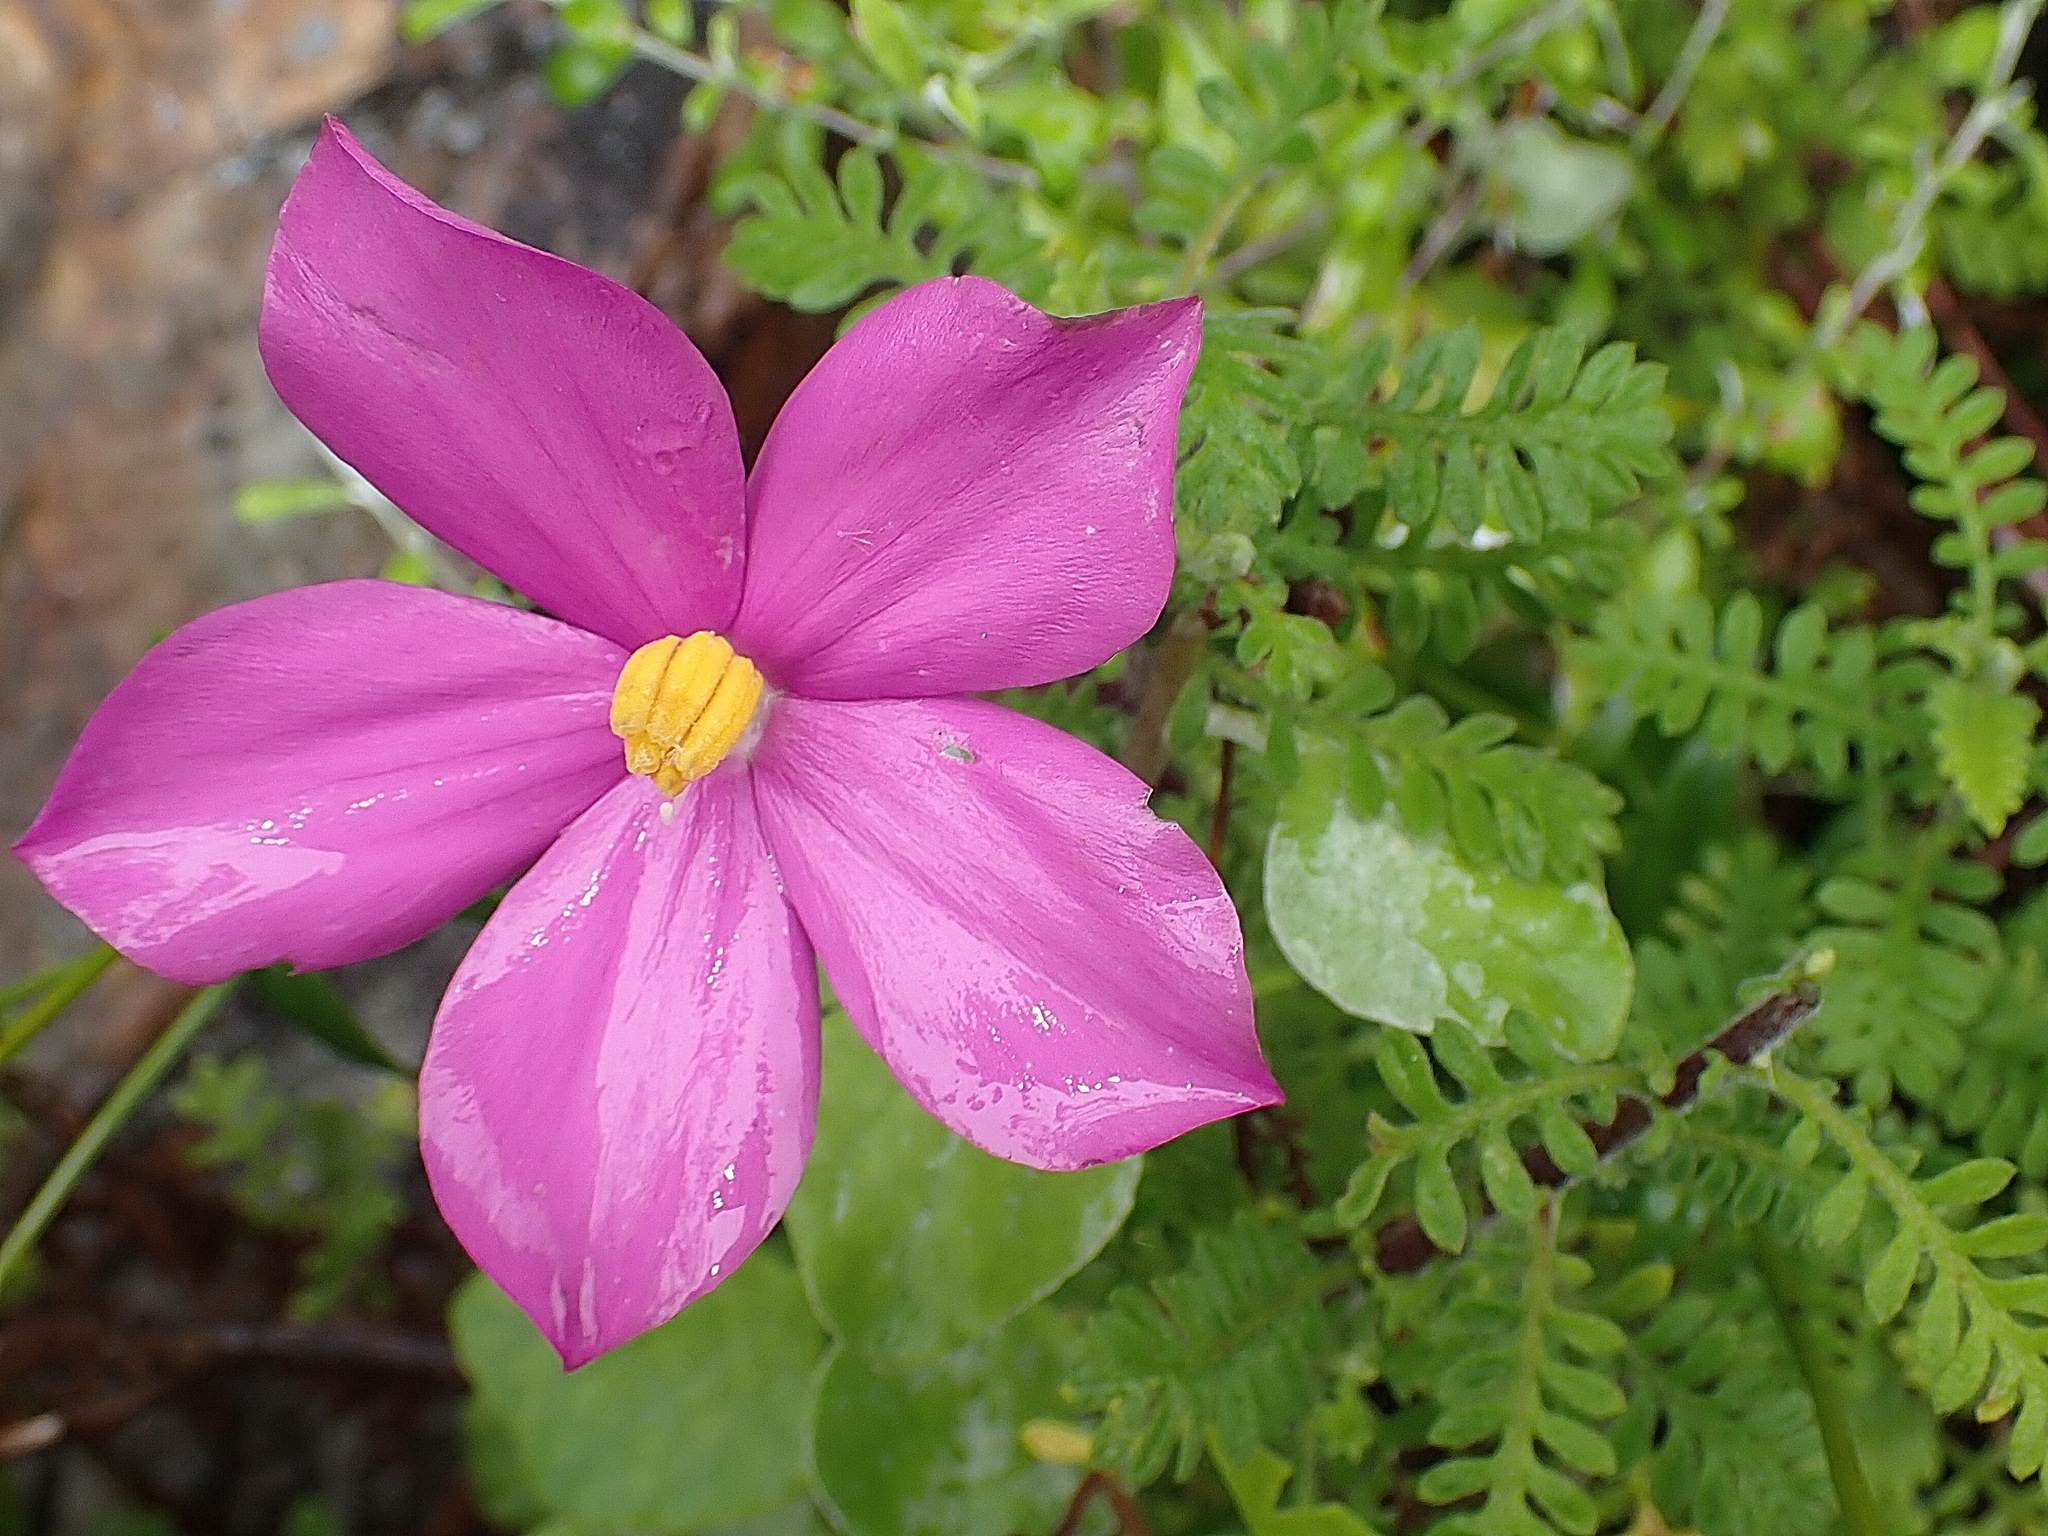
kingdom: Plantae
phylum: Tracheophyta
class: Magnoliopsida
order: Gentianales
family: Gentianaceae
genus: Chironia
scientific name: Chironia melampyrifolia
